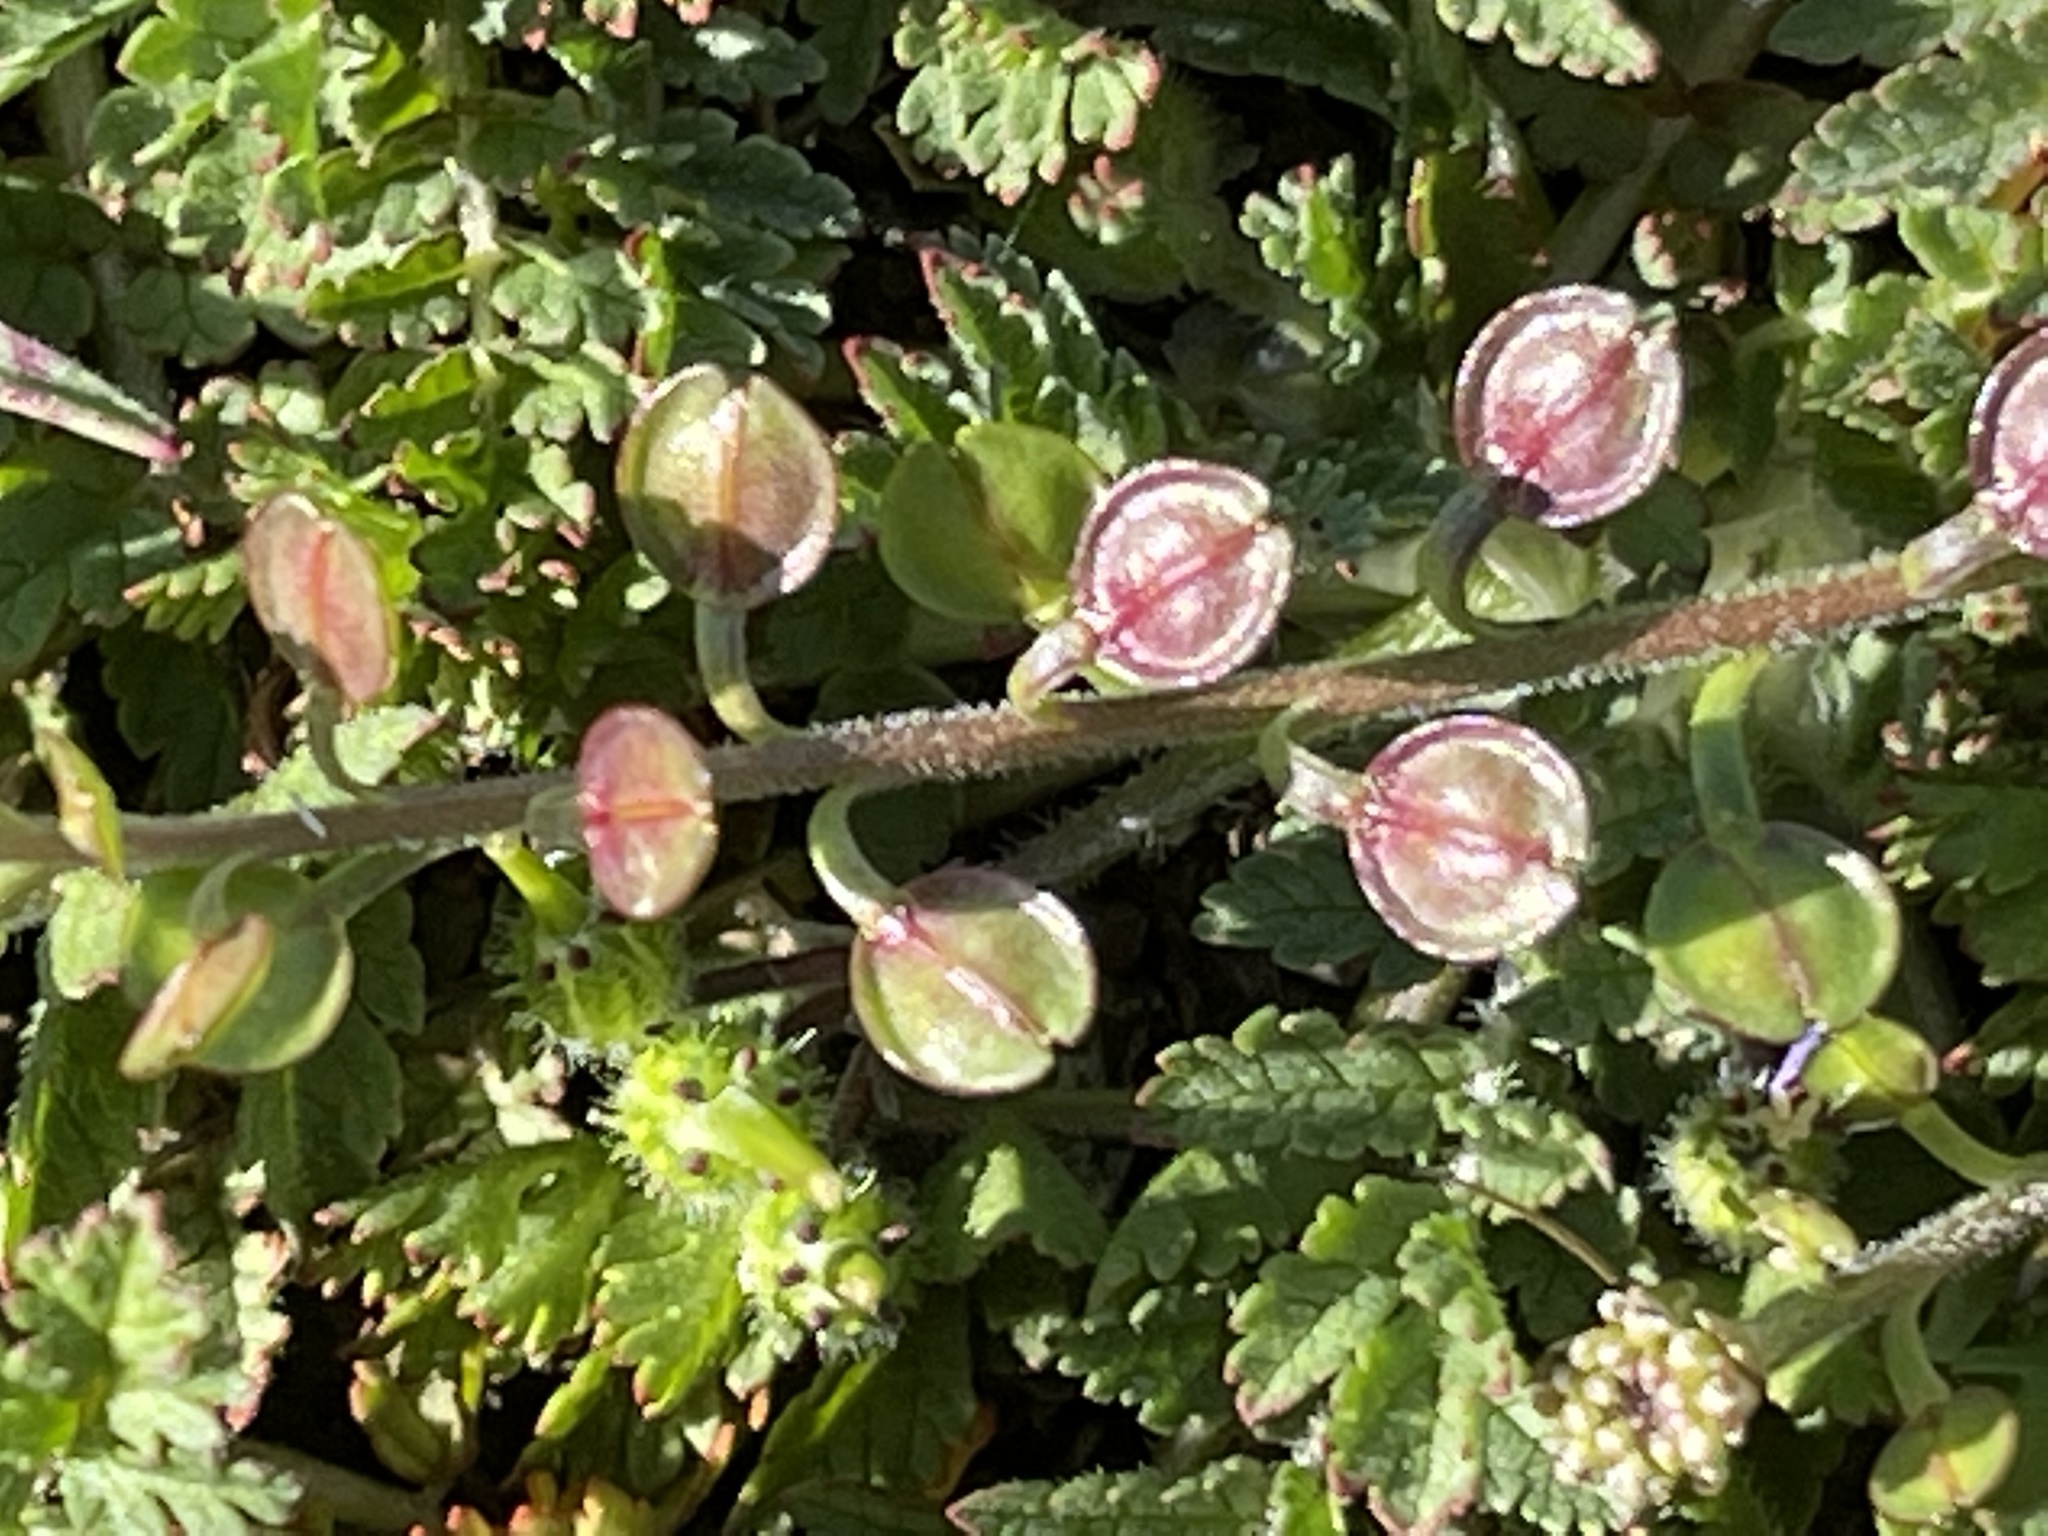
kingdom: Plantae
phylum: Tracheophyta
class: Magnoliopsida
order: Brassicales
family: Brassicaceae
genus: Lepidium
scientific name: Lepidium nitidum
